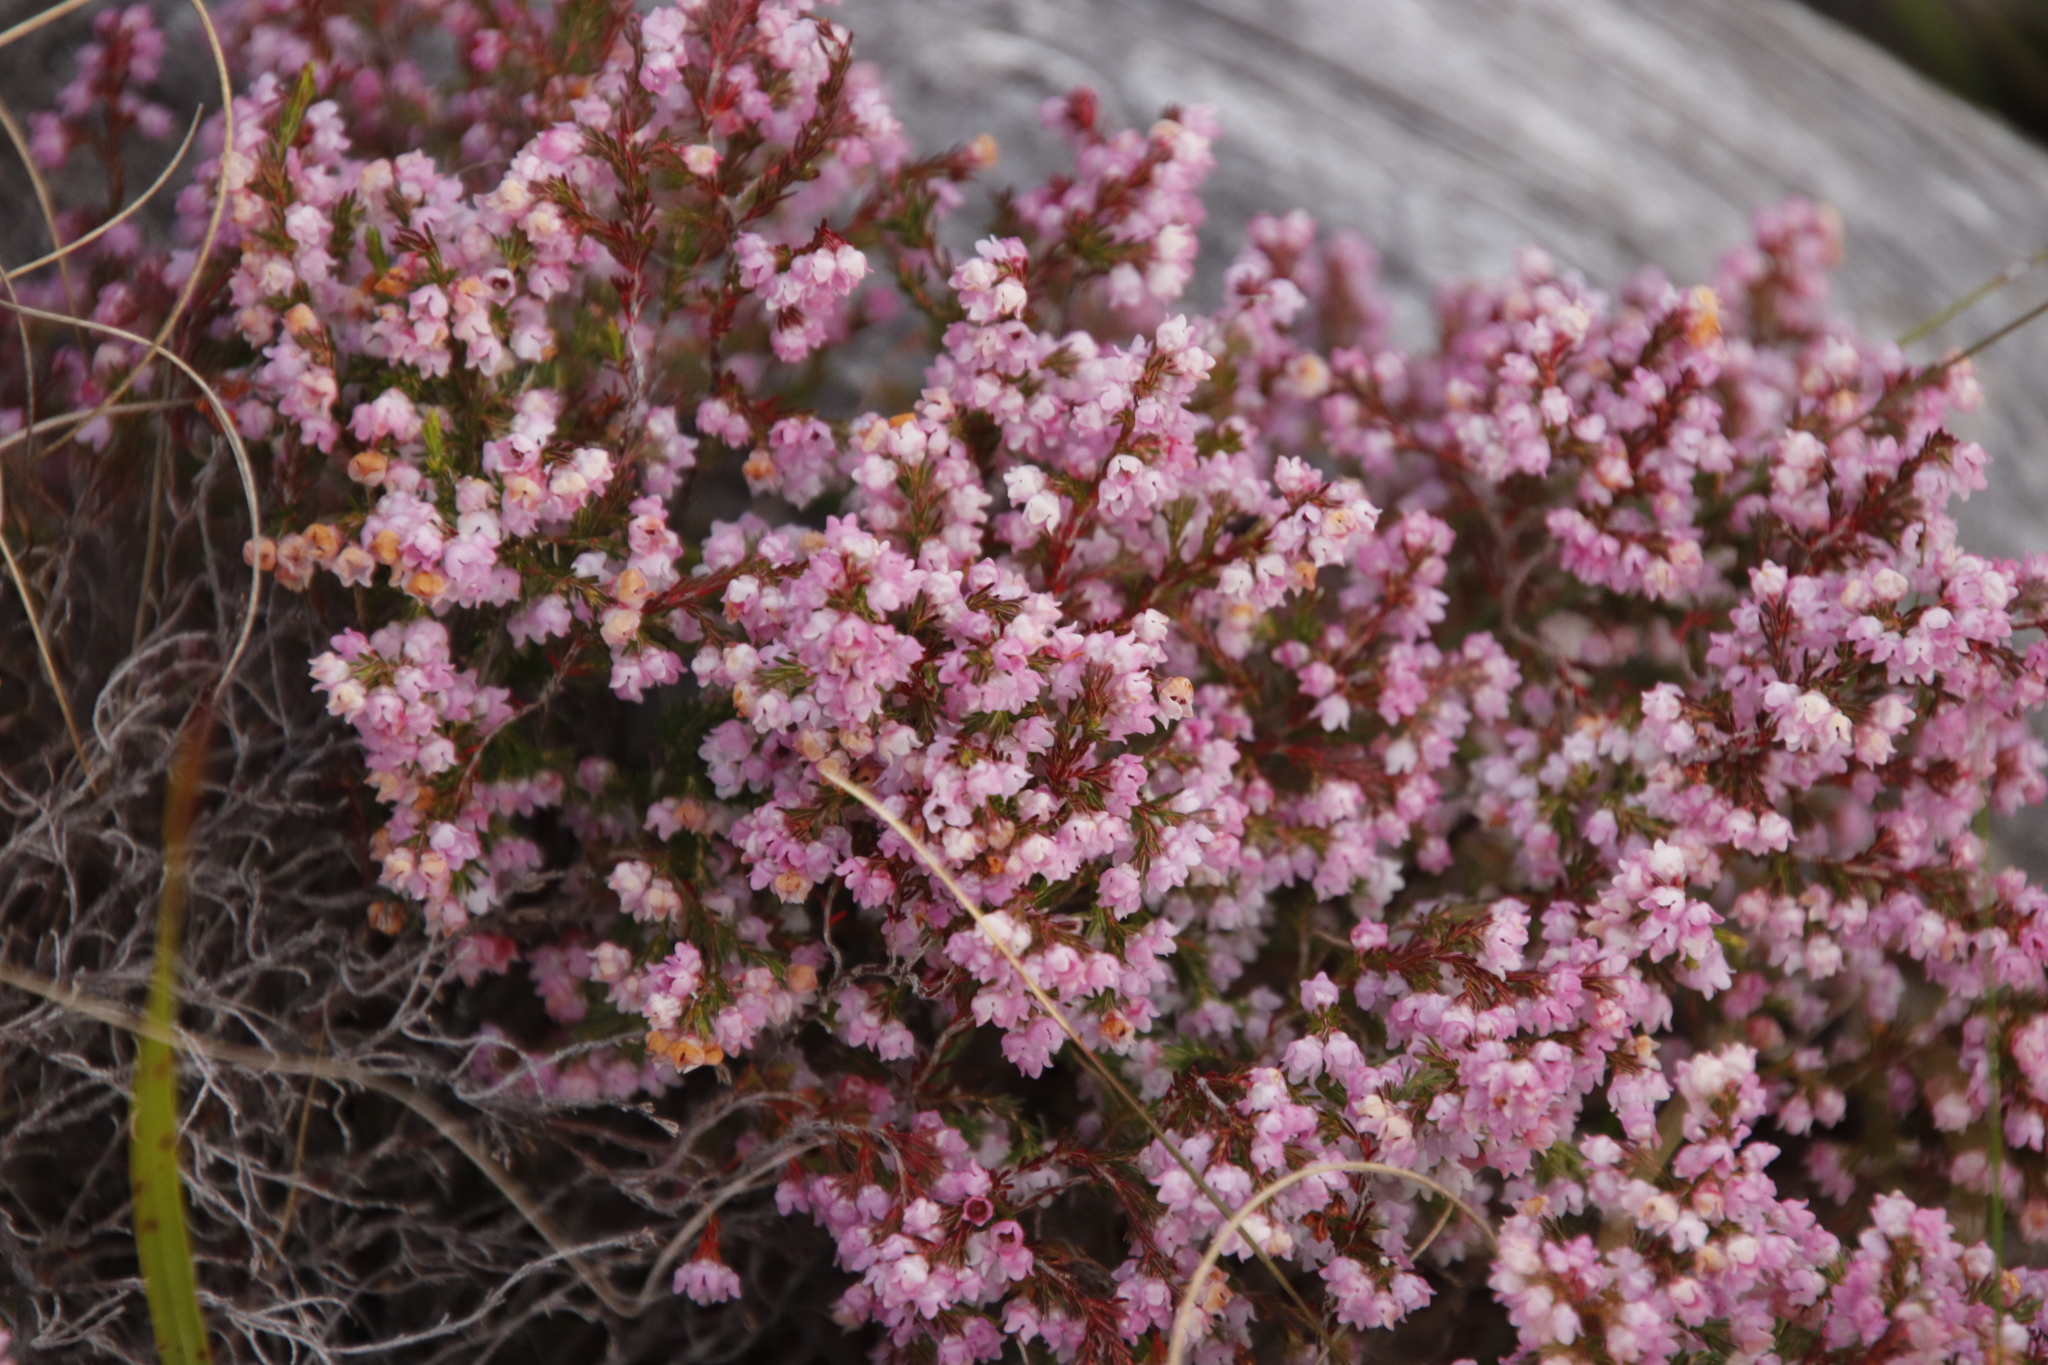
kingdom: Plantae
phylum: Tracheophyta
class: Magnoliopsida
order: Ericales
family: Ericaceae
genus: Erica
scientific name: Erica mauritanica
